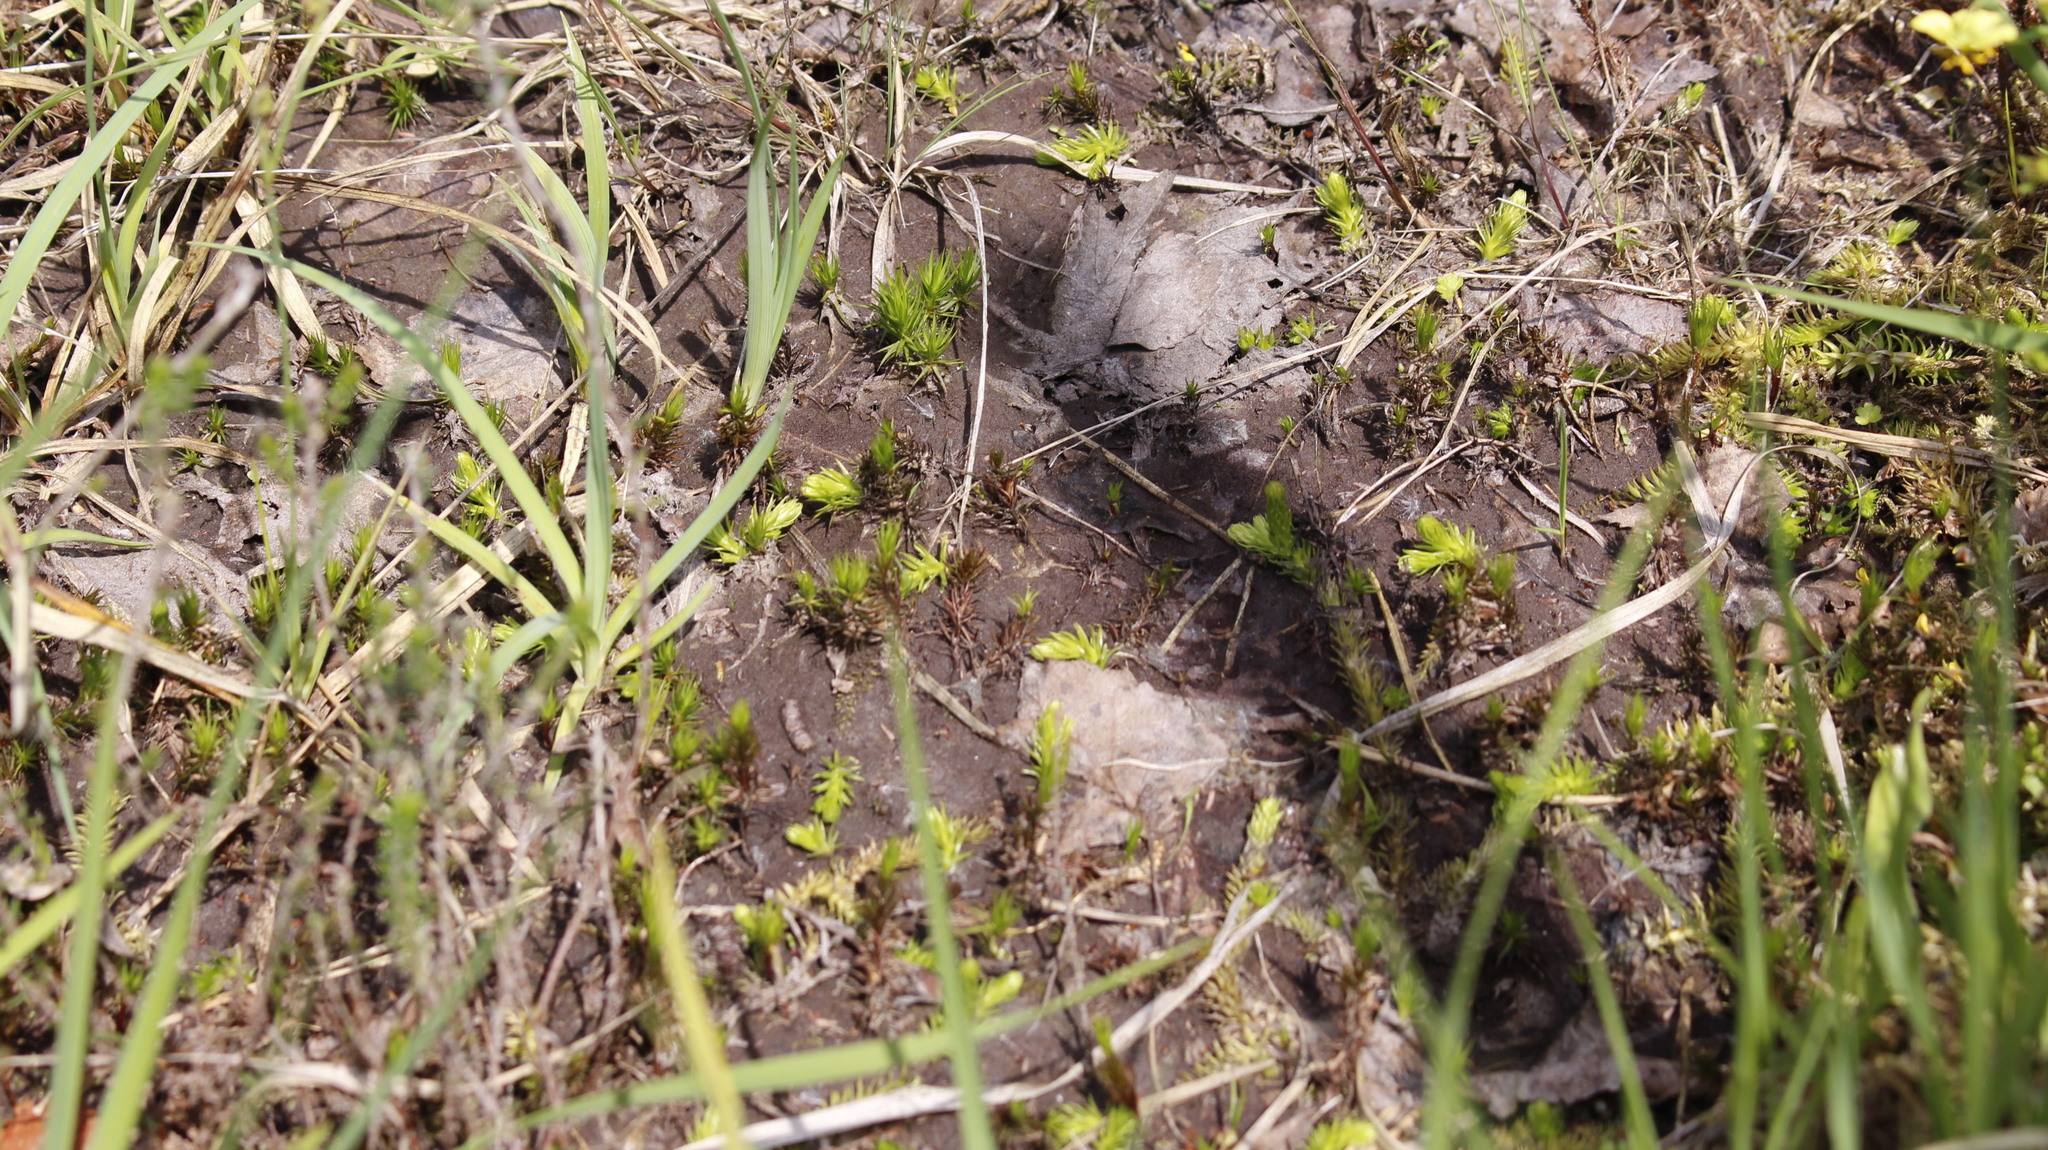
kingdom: Plantae
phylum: Tracheophyta
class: Lycopodiopsida
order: Lycopodiales
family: Lycopodiaceae
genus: Lycopodiella
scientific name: Lycopodiella inundata
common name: Marsh clubmoss
